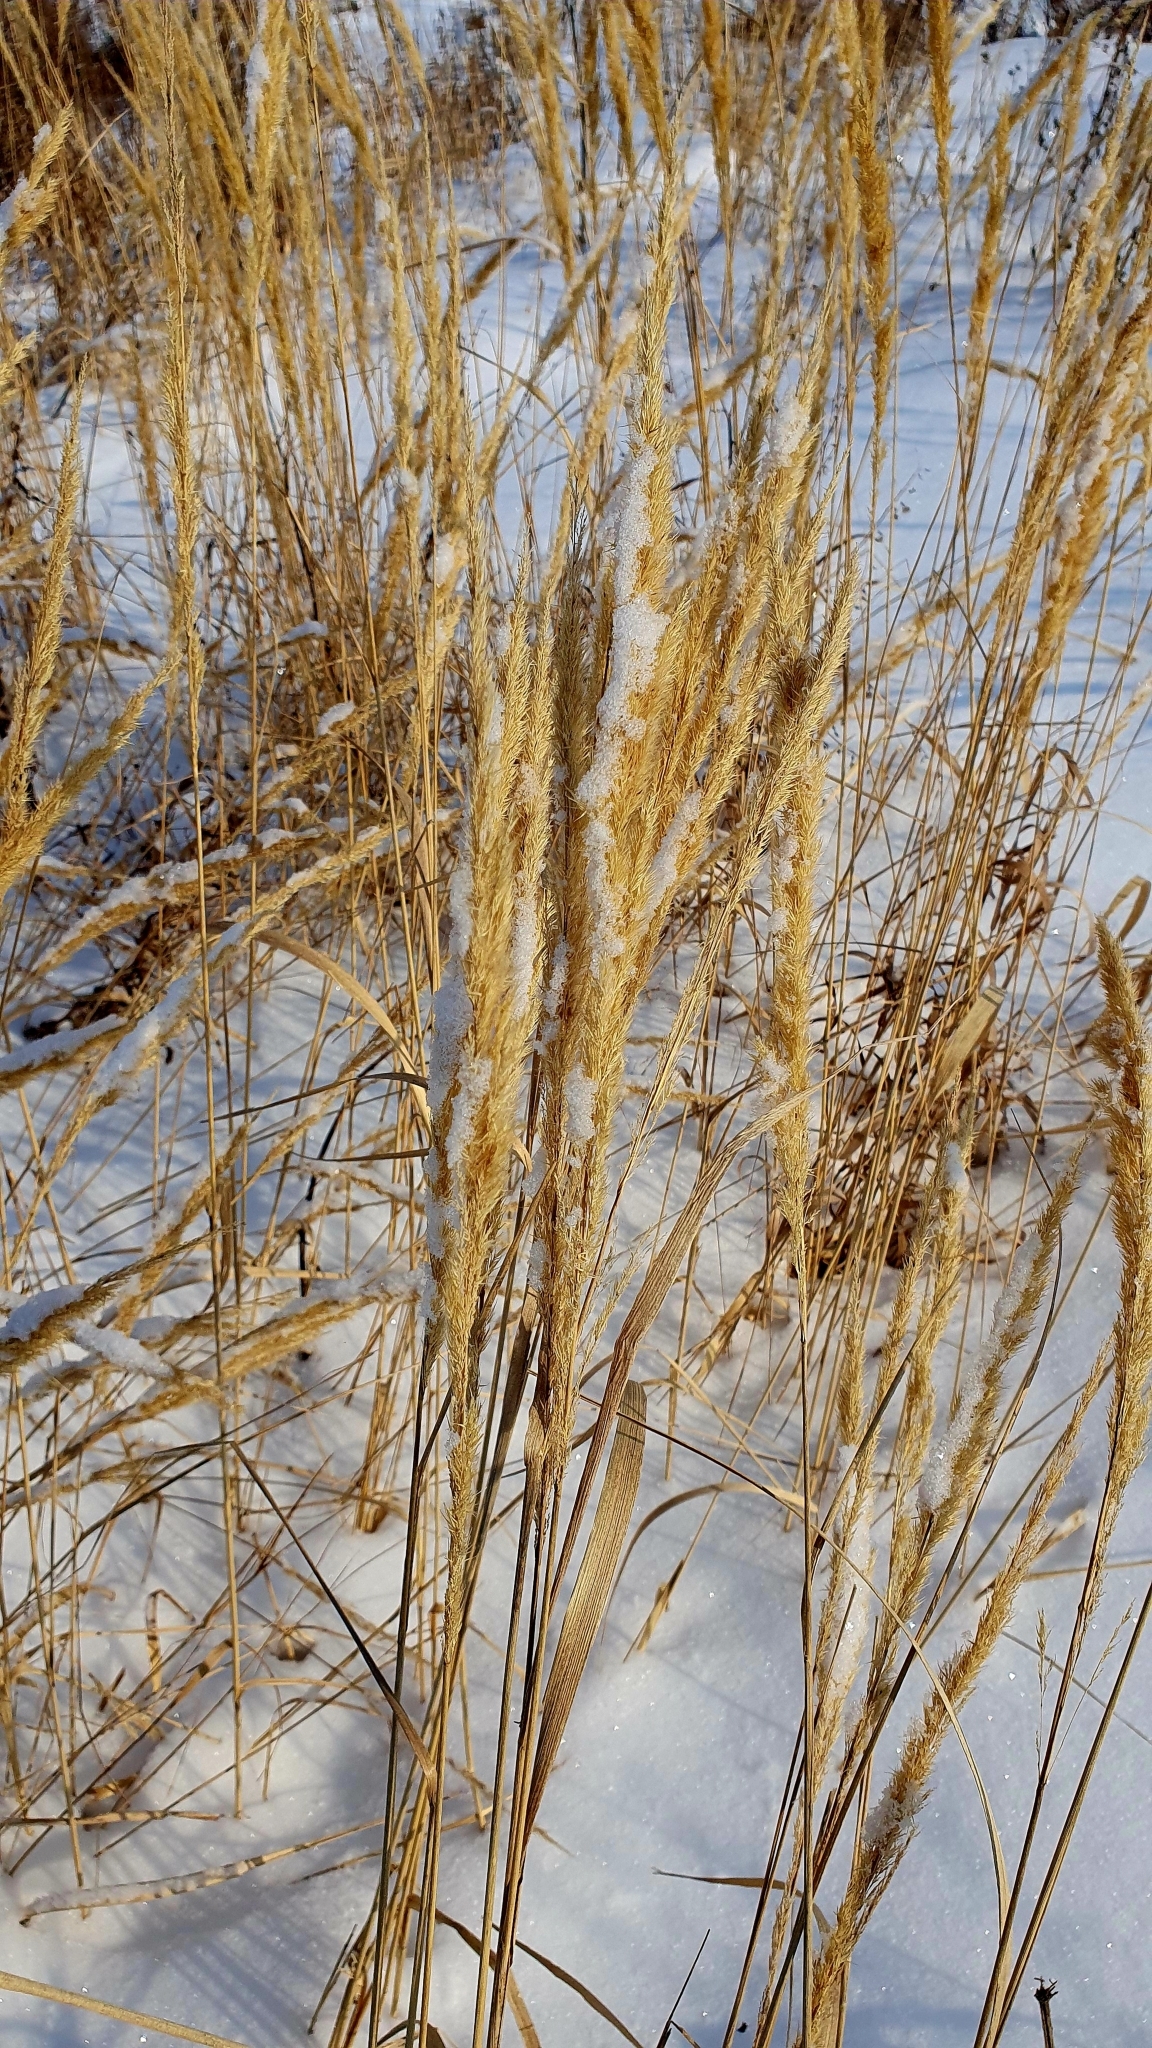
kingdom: Plantae
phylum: Tracheophyta
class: Liliopsida
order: Poales
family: Poaceae
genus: Calamagrostis
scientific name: Calamagrostis epigejos
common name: Wood small-reed
